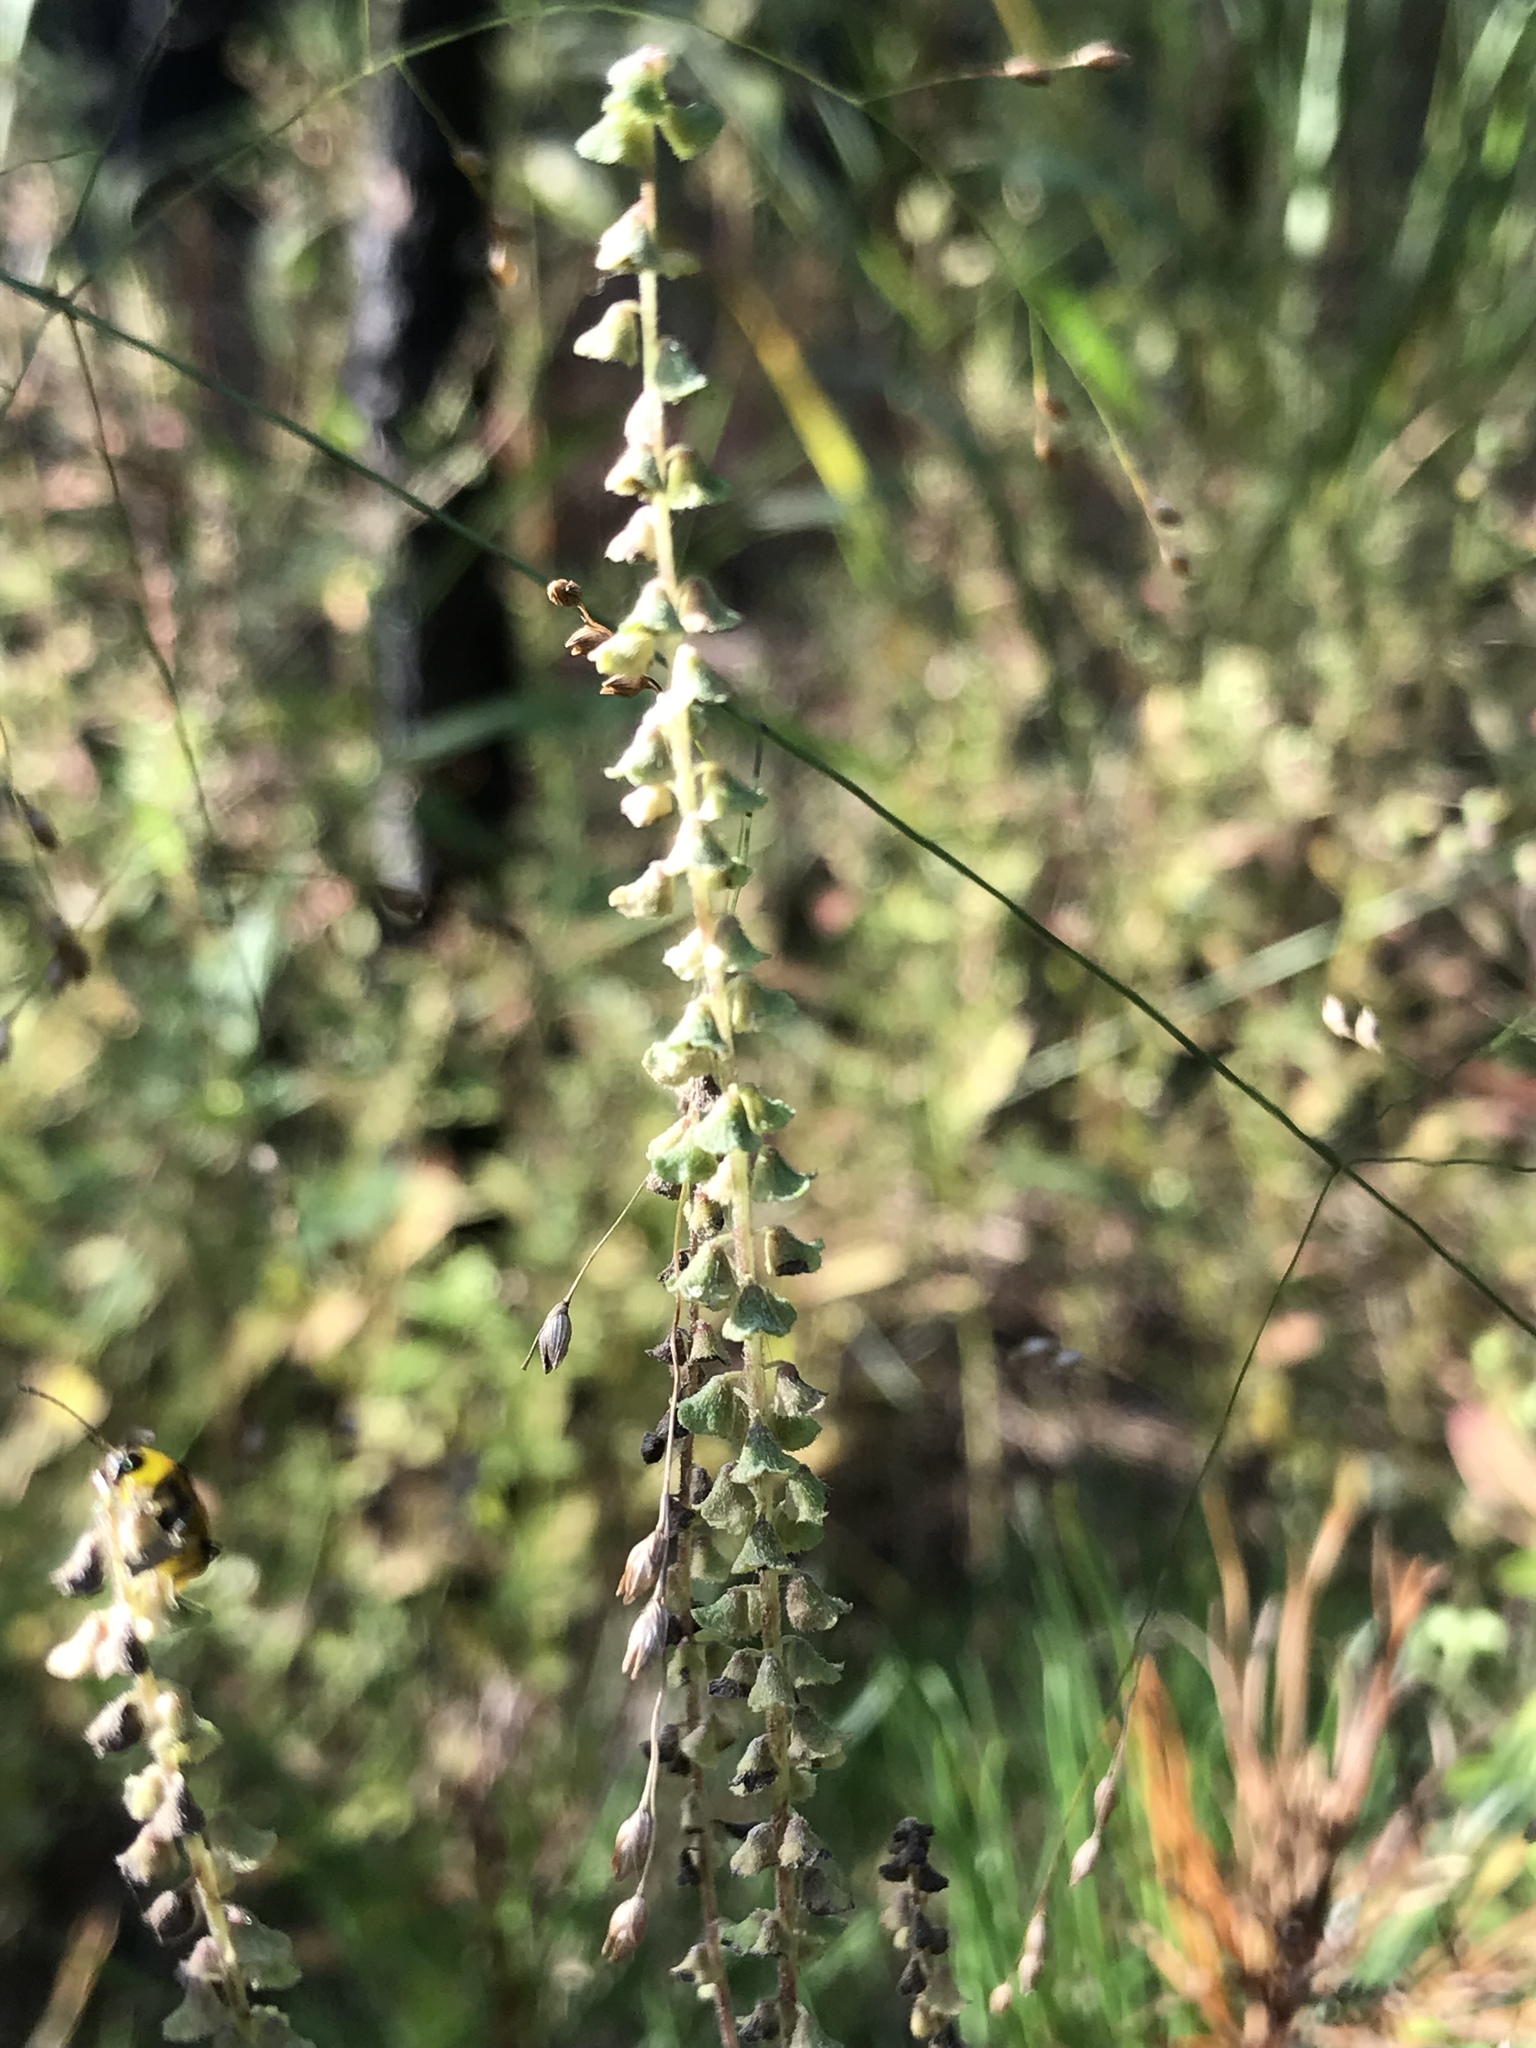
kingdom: Plantae
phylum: Tracheophyta
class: Magnoliopsida
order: Asterales
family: Asteraceae
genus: Ambrosia
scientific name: Ambrosia artemisiifolia
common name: Annual ragweed
